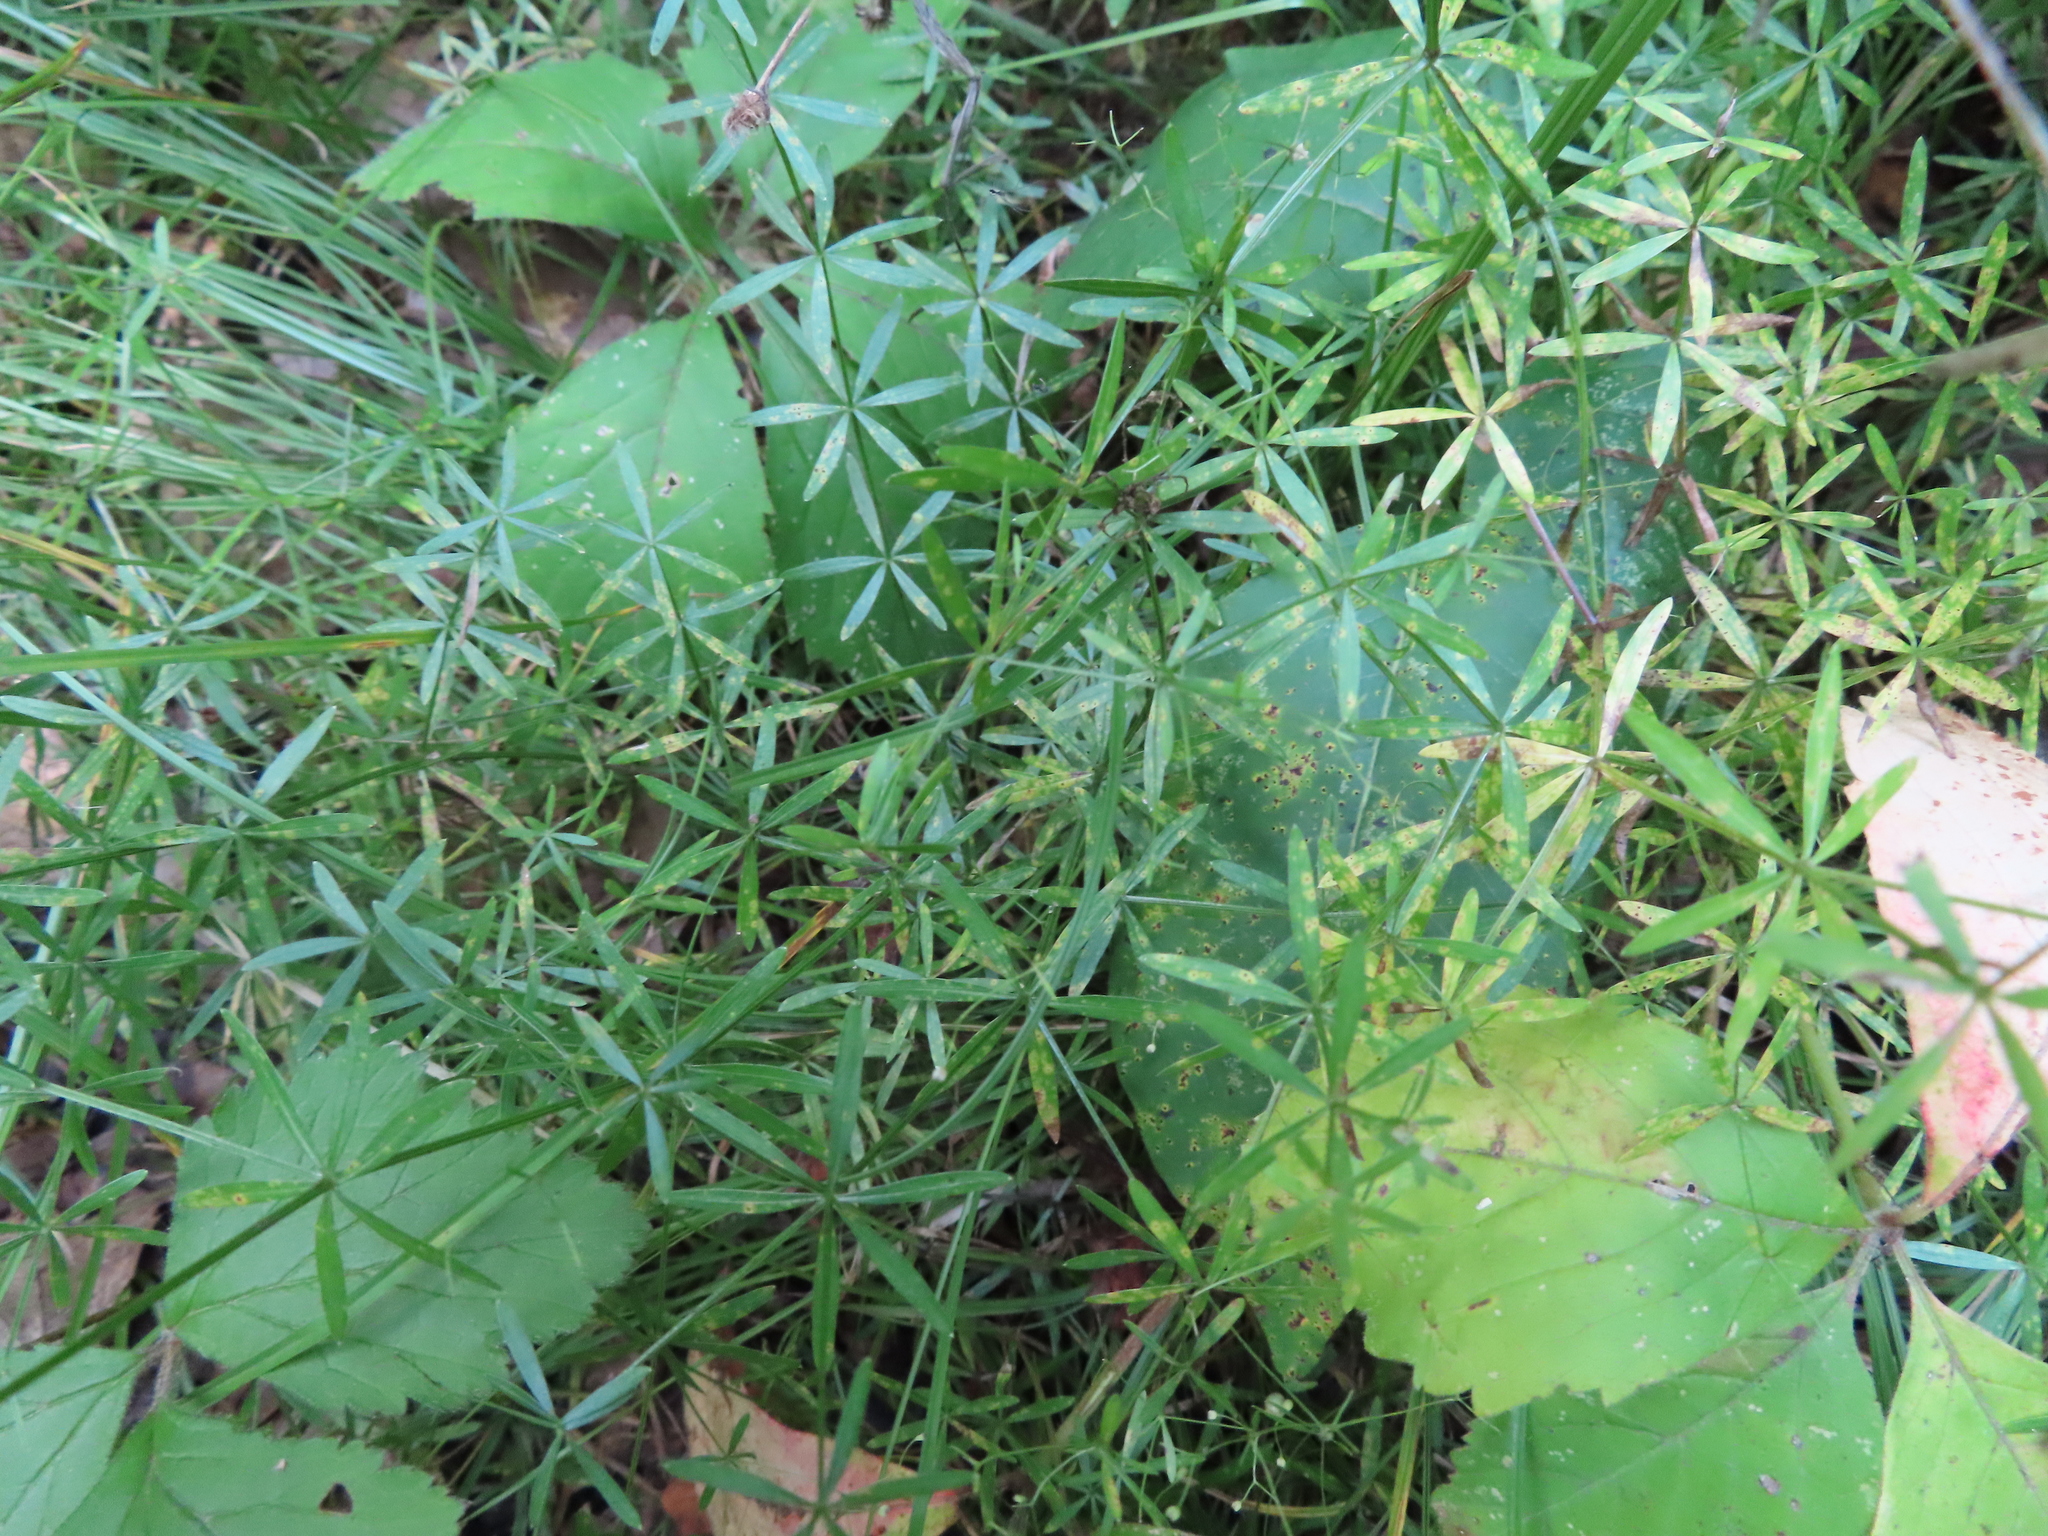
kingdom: Plantae
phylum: Tracheophyta
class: Magnoliopsida
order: Gentianales
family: Rubiaceae
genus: Galium
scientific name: Galium concinnum
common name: Shining bedstraw
